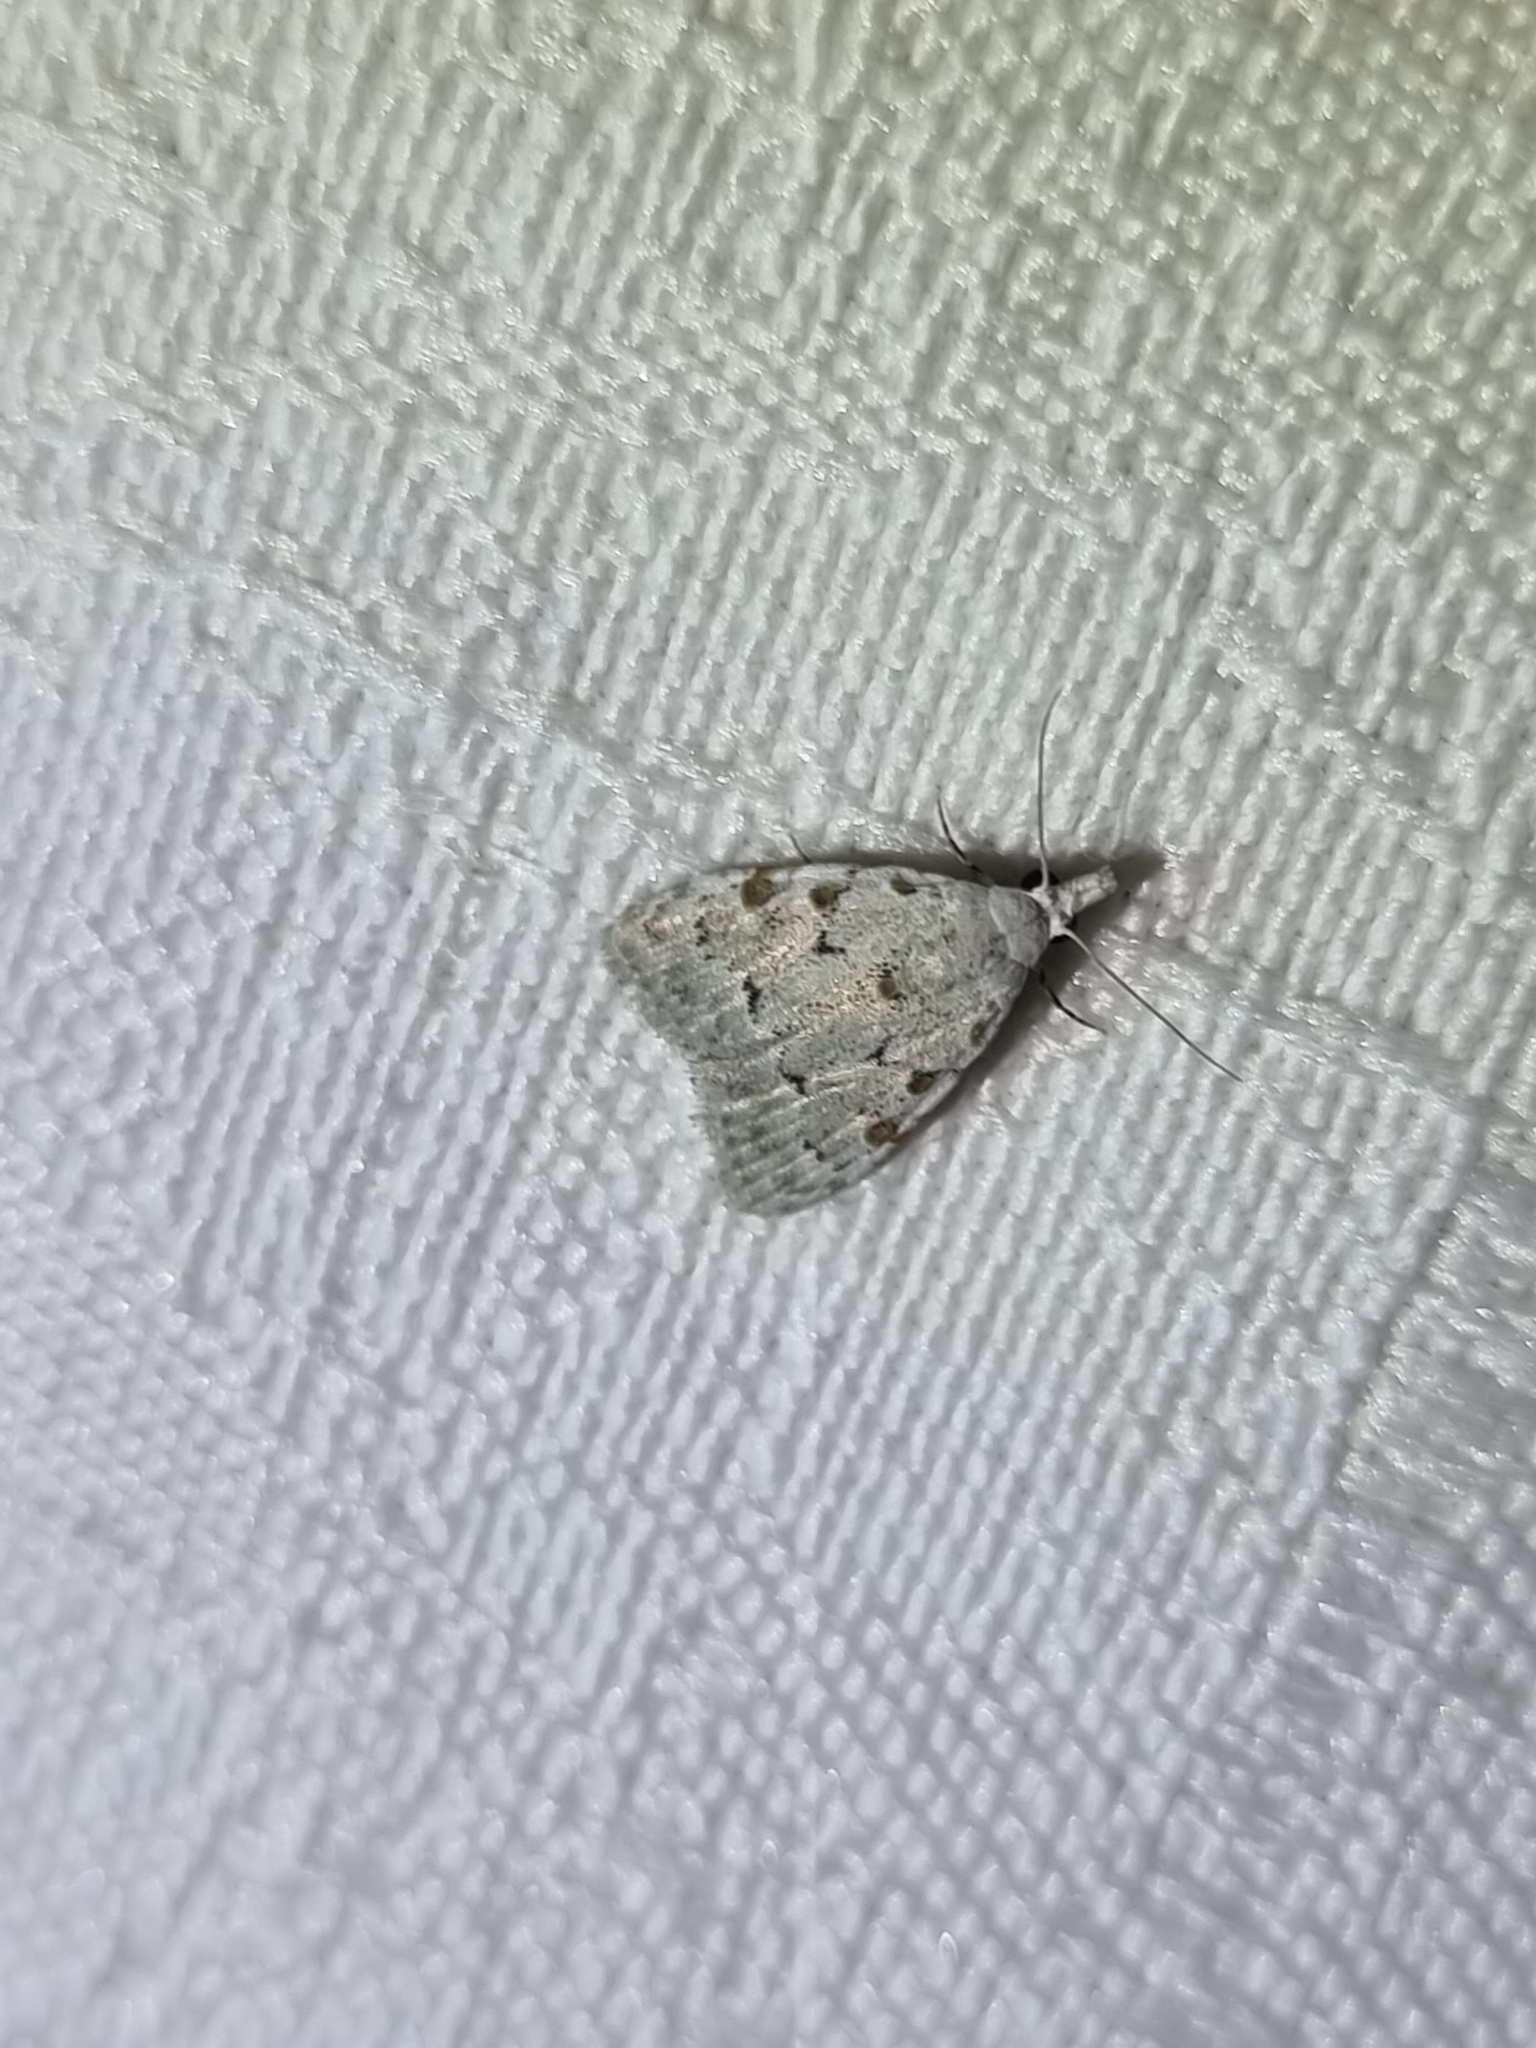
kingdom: Animalia
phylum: Arthropoda
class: Insecta
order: Lepidoptera
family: Nolidae
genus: Nola
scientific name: Nola argentea
